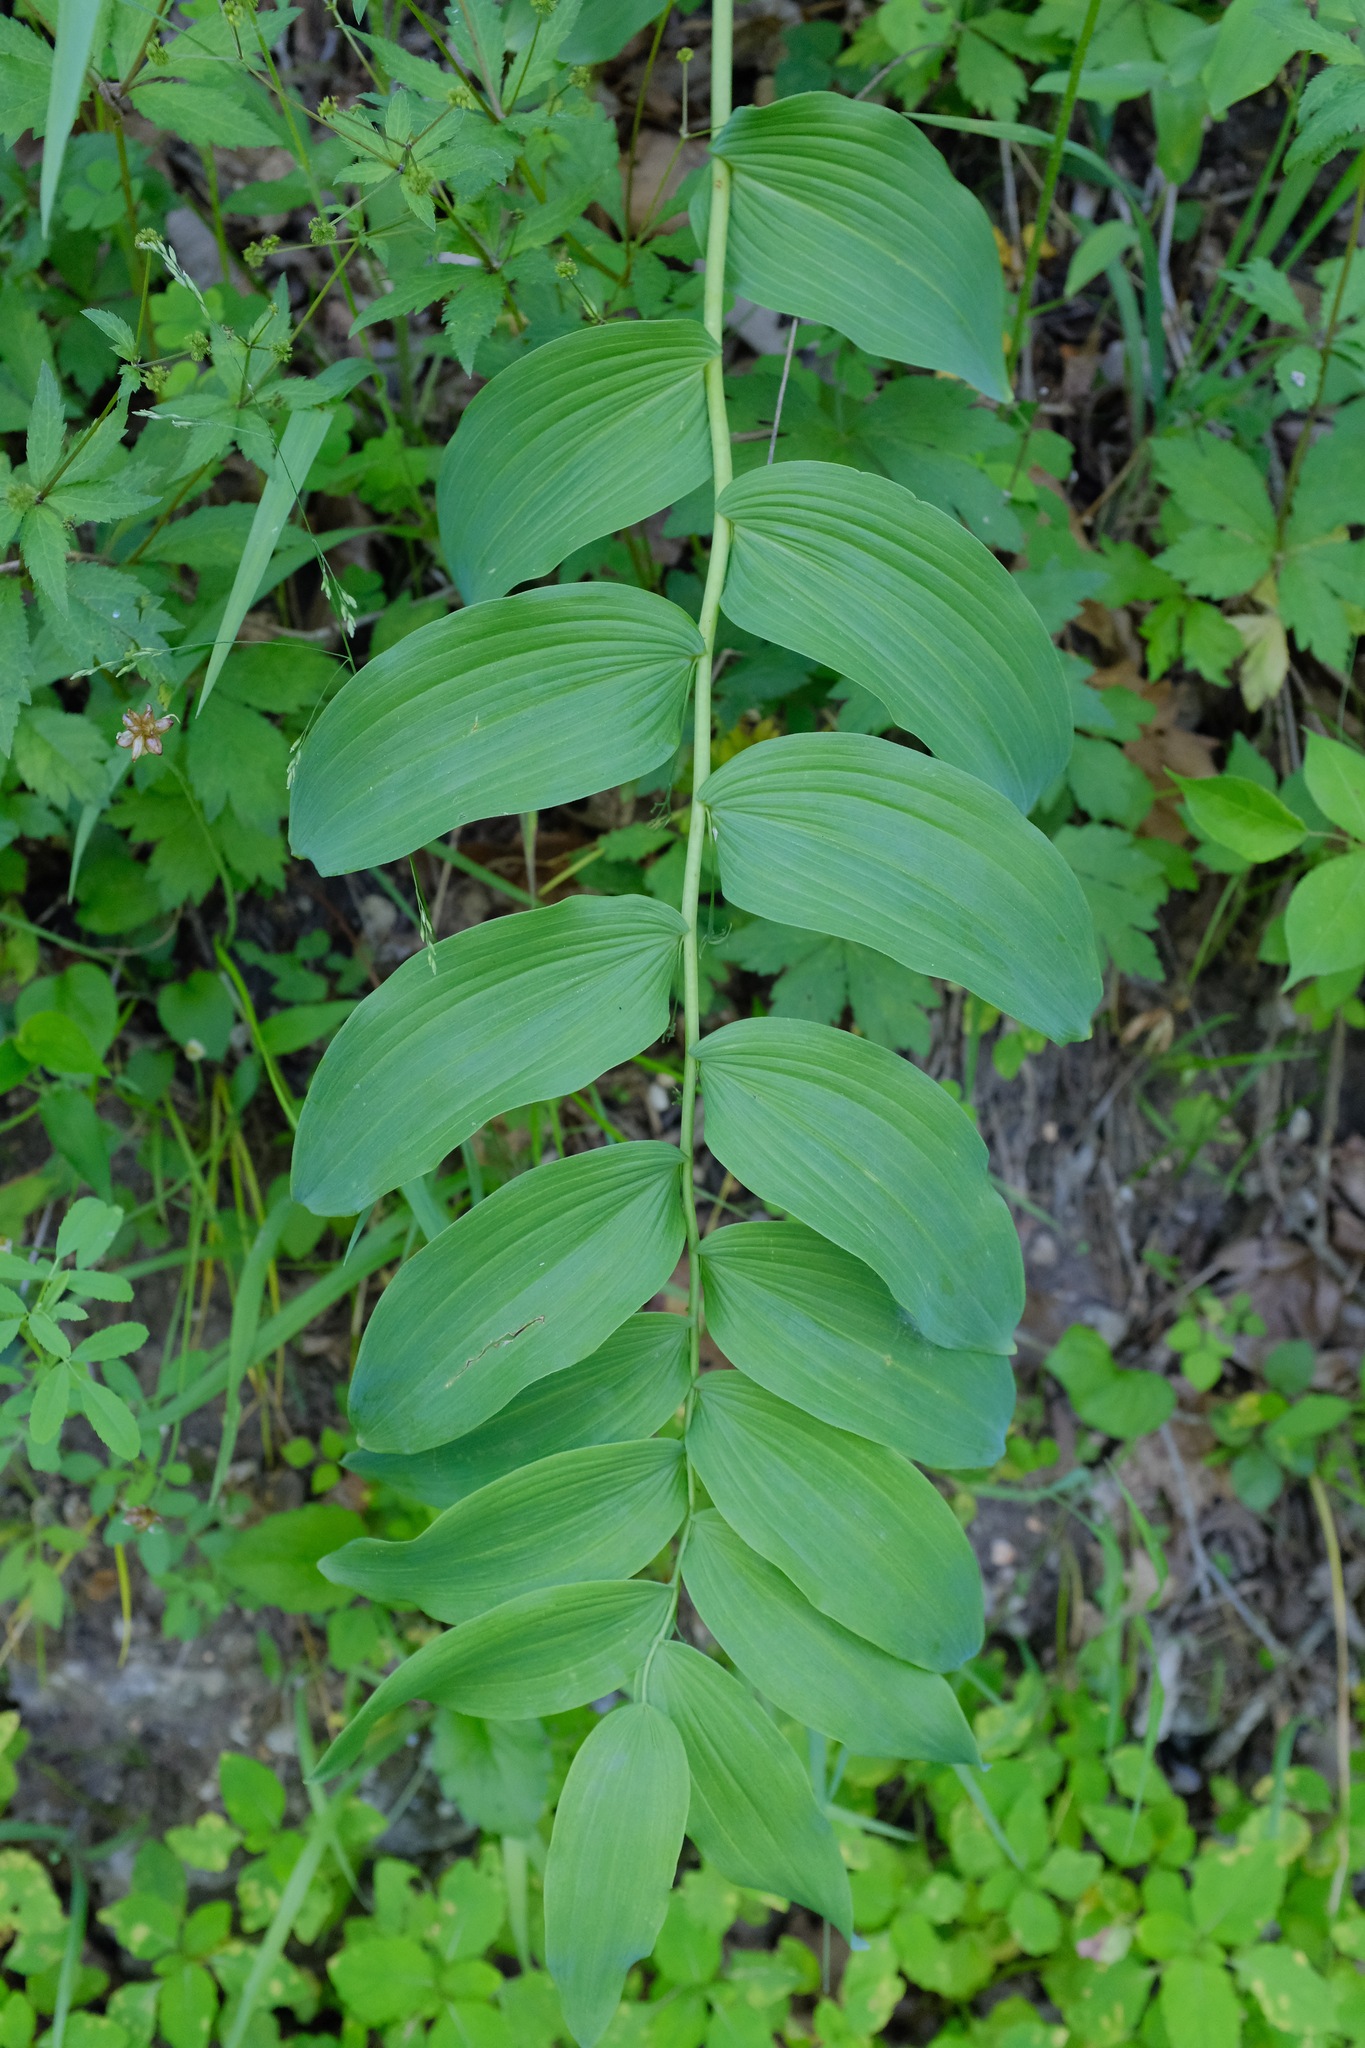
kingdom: Plantae
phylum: Tracheophyta
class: Liliopsida
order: Asparagales
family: Asparagaceae
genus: Polygonatum
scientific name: Polygonatum biflorum
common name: American solomon's-seal
